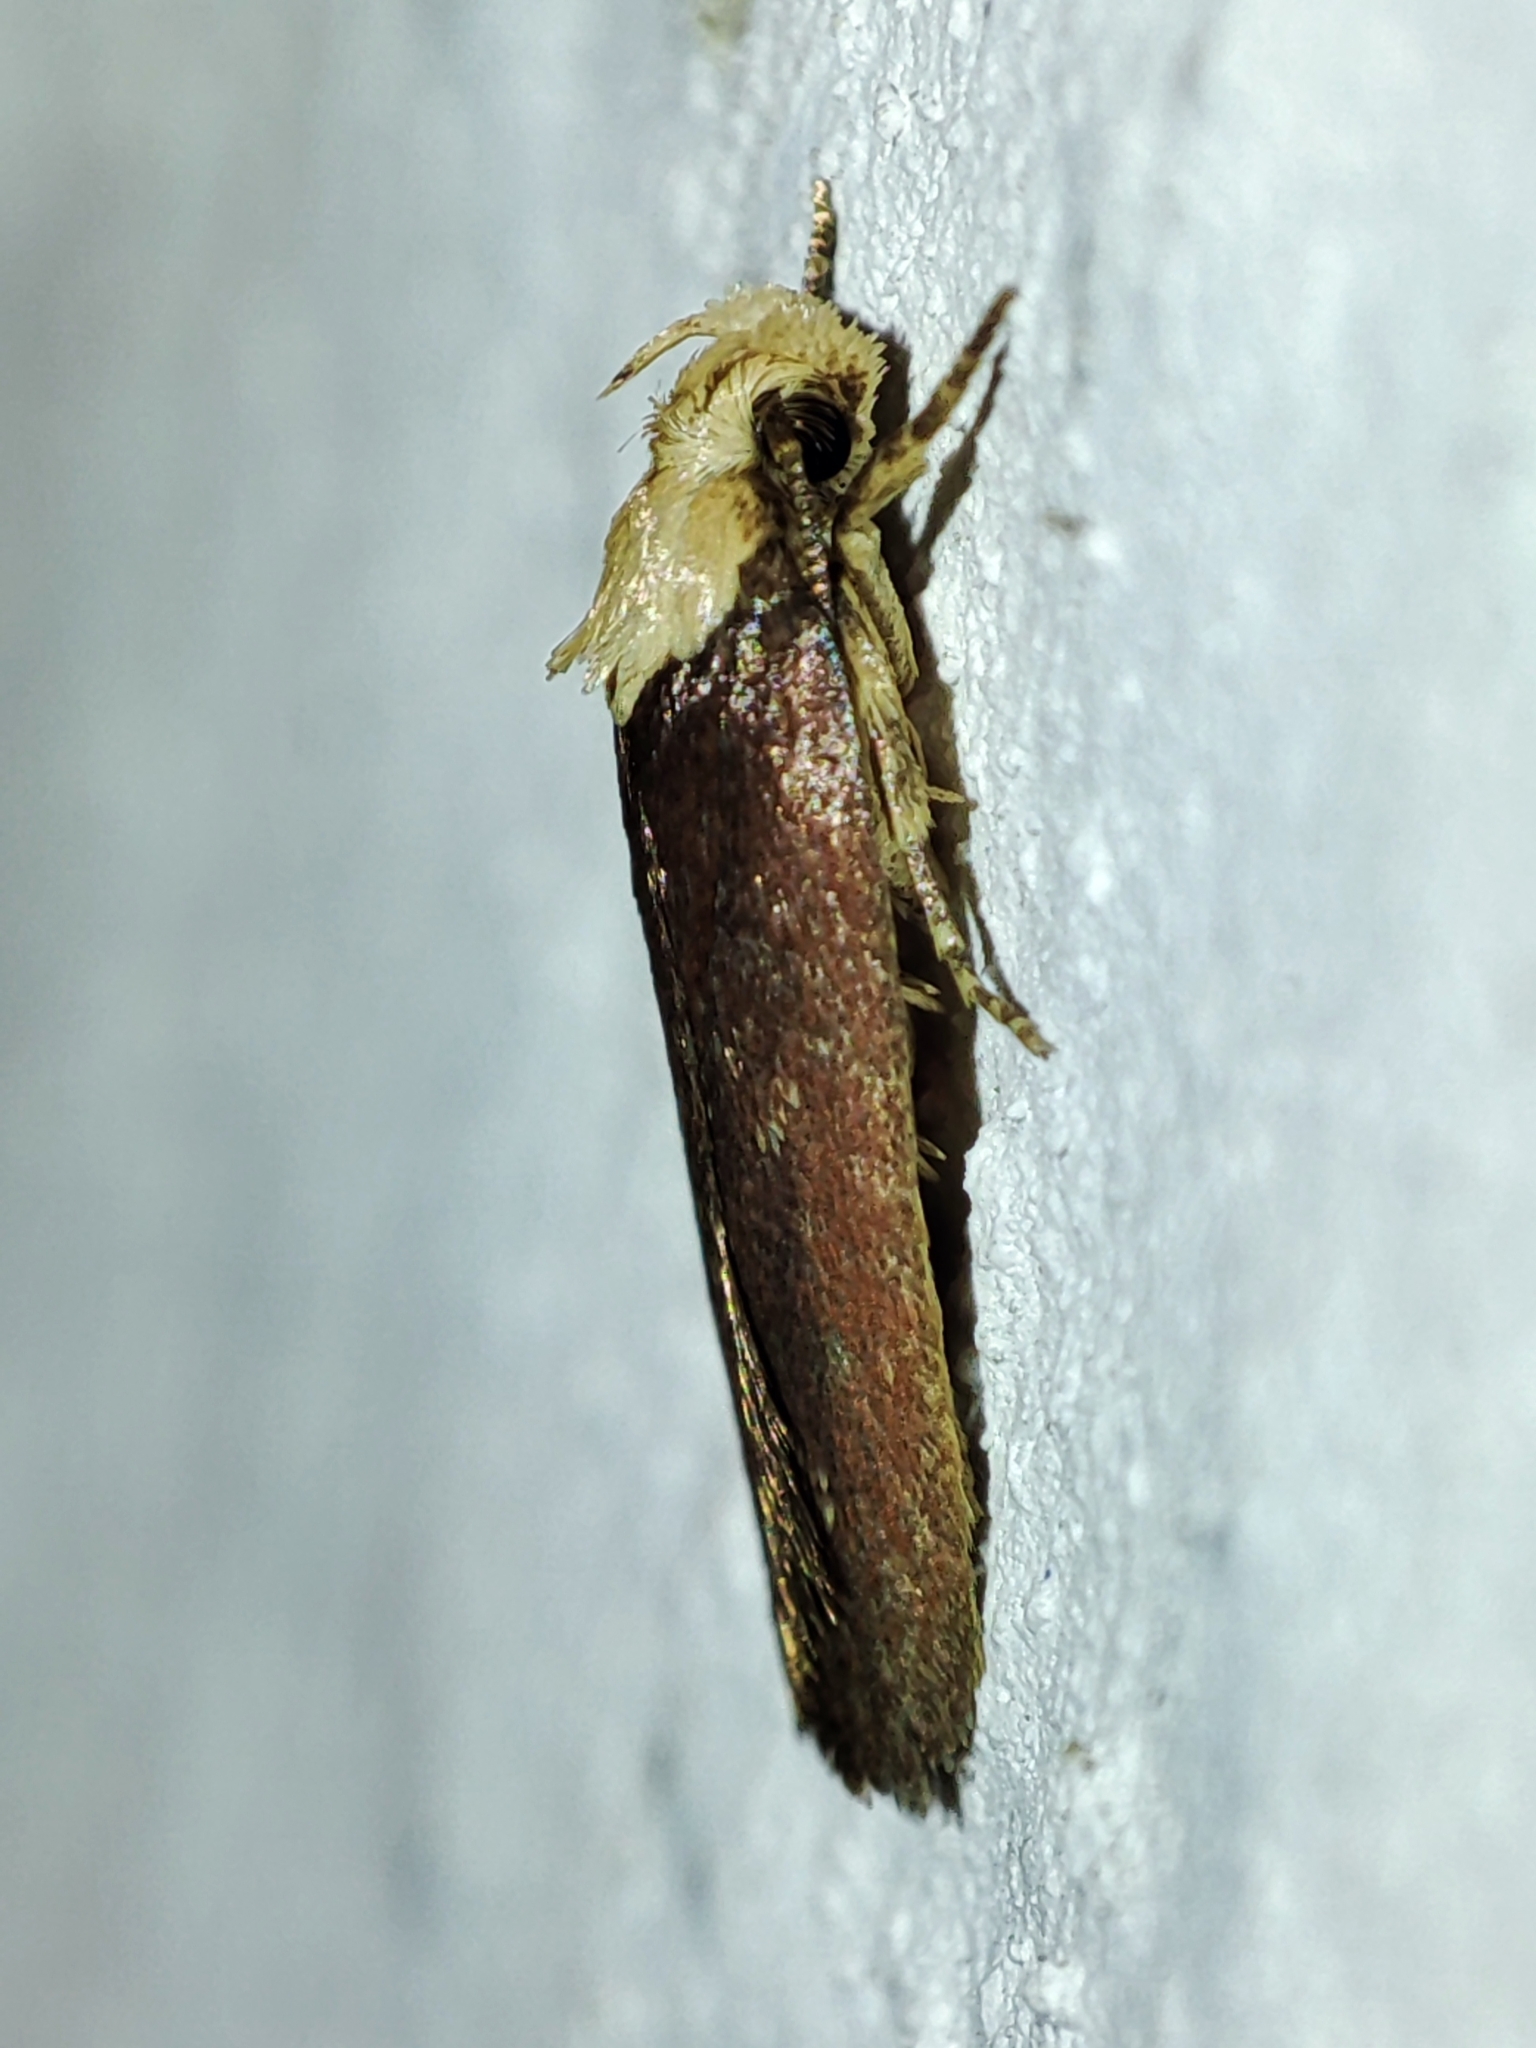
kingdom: Animalia
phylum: Arthropoda
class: Insecta
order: Lepidoptera
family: Depressariidae
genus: Depressaria
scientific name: Depressaria depressana
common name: Lost flat-body
